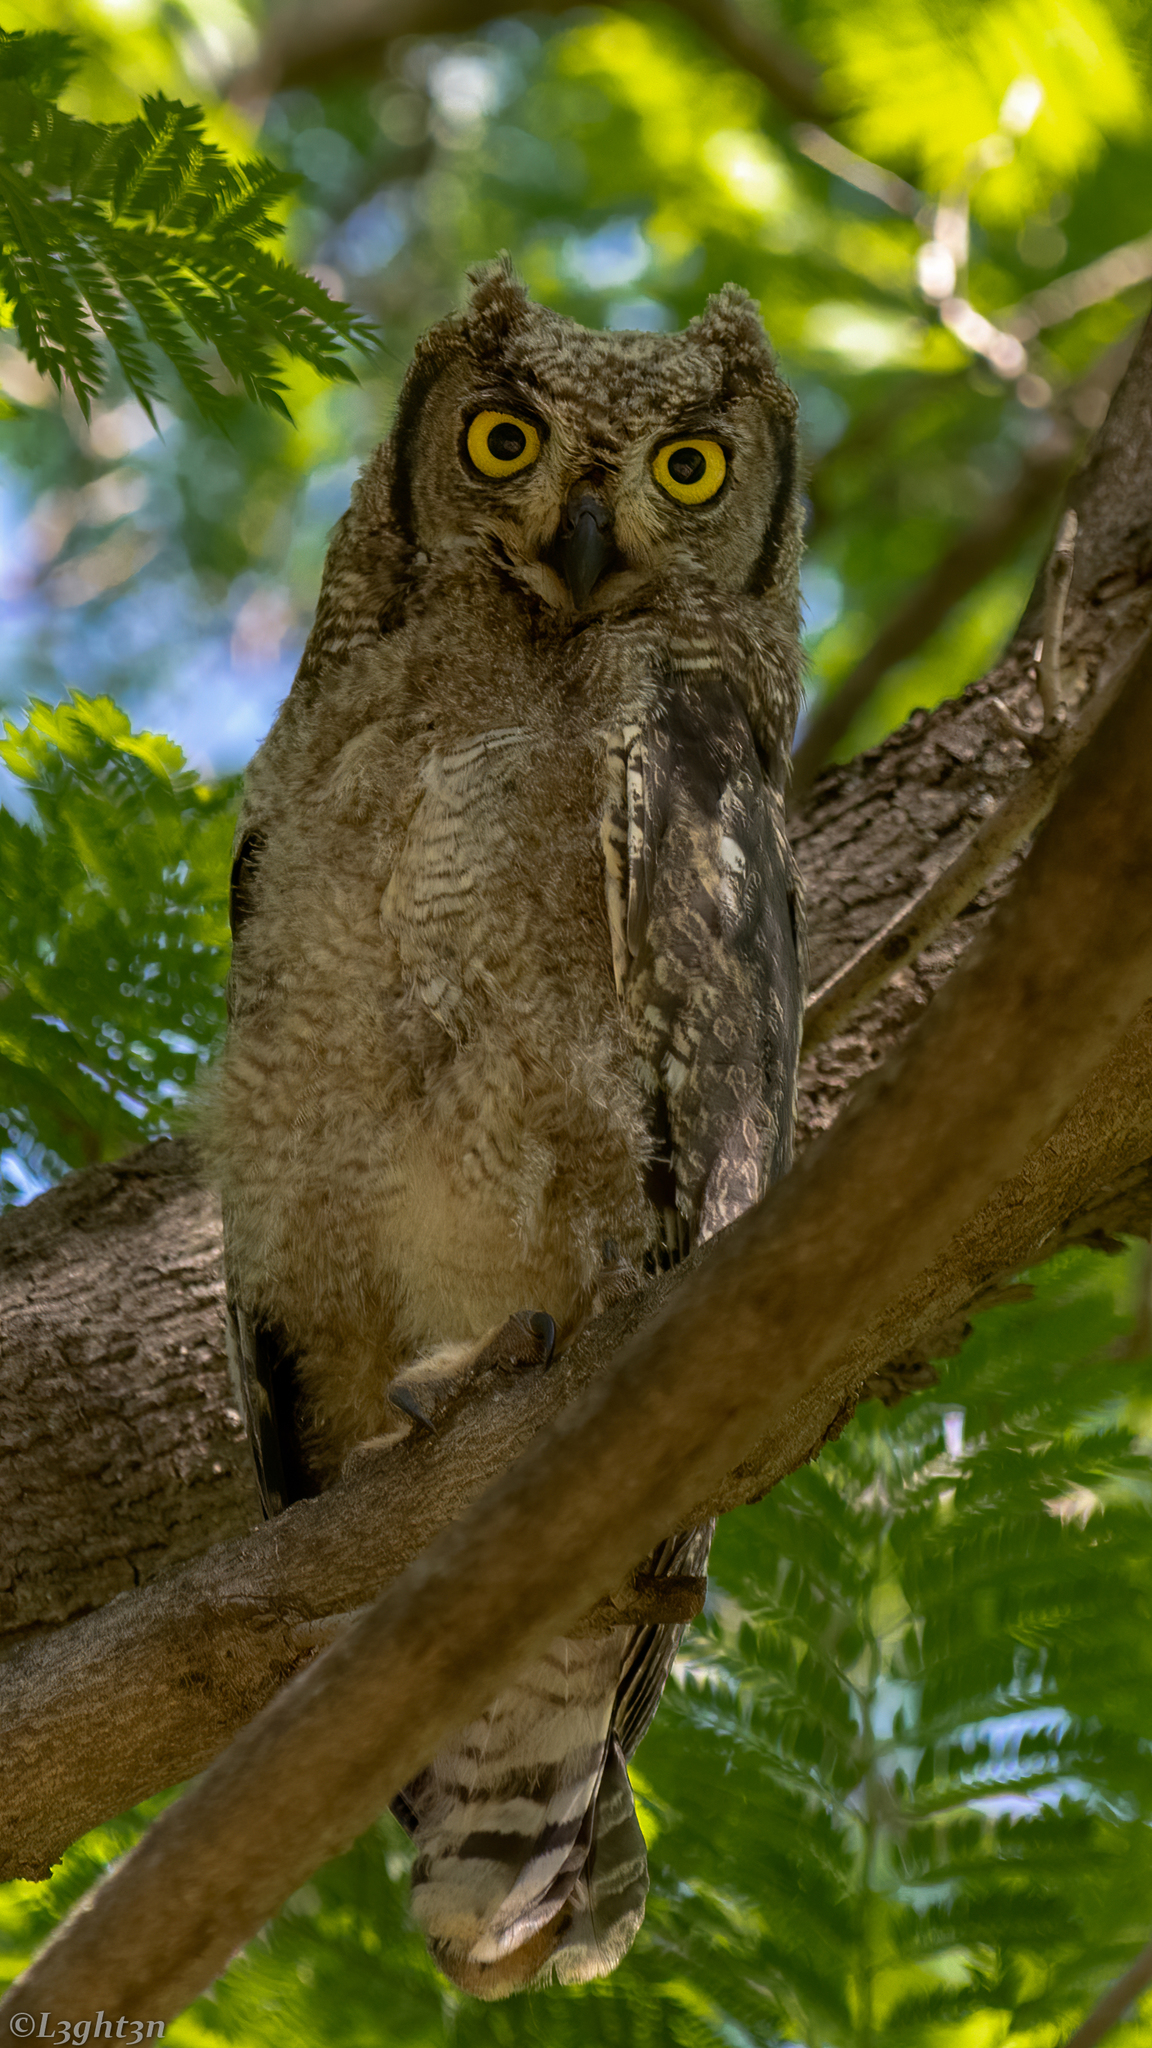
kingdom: Animalia
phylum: Chordata
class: Aves
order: Strigiformes
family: Strigidae
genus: Bubo
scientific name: Bubo africanus
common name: Spotted eagle-owl
